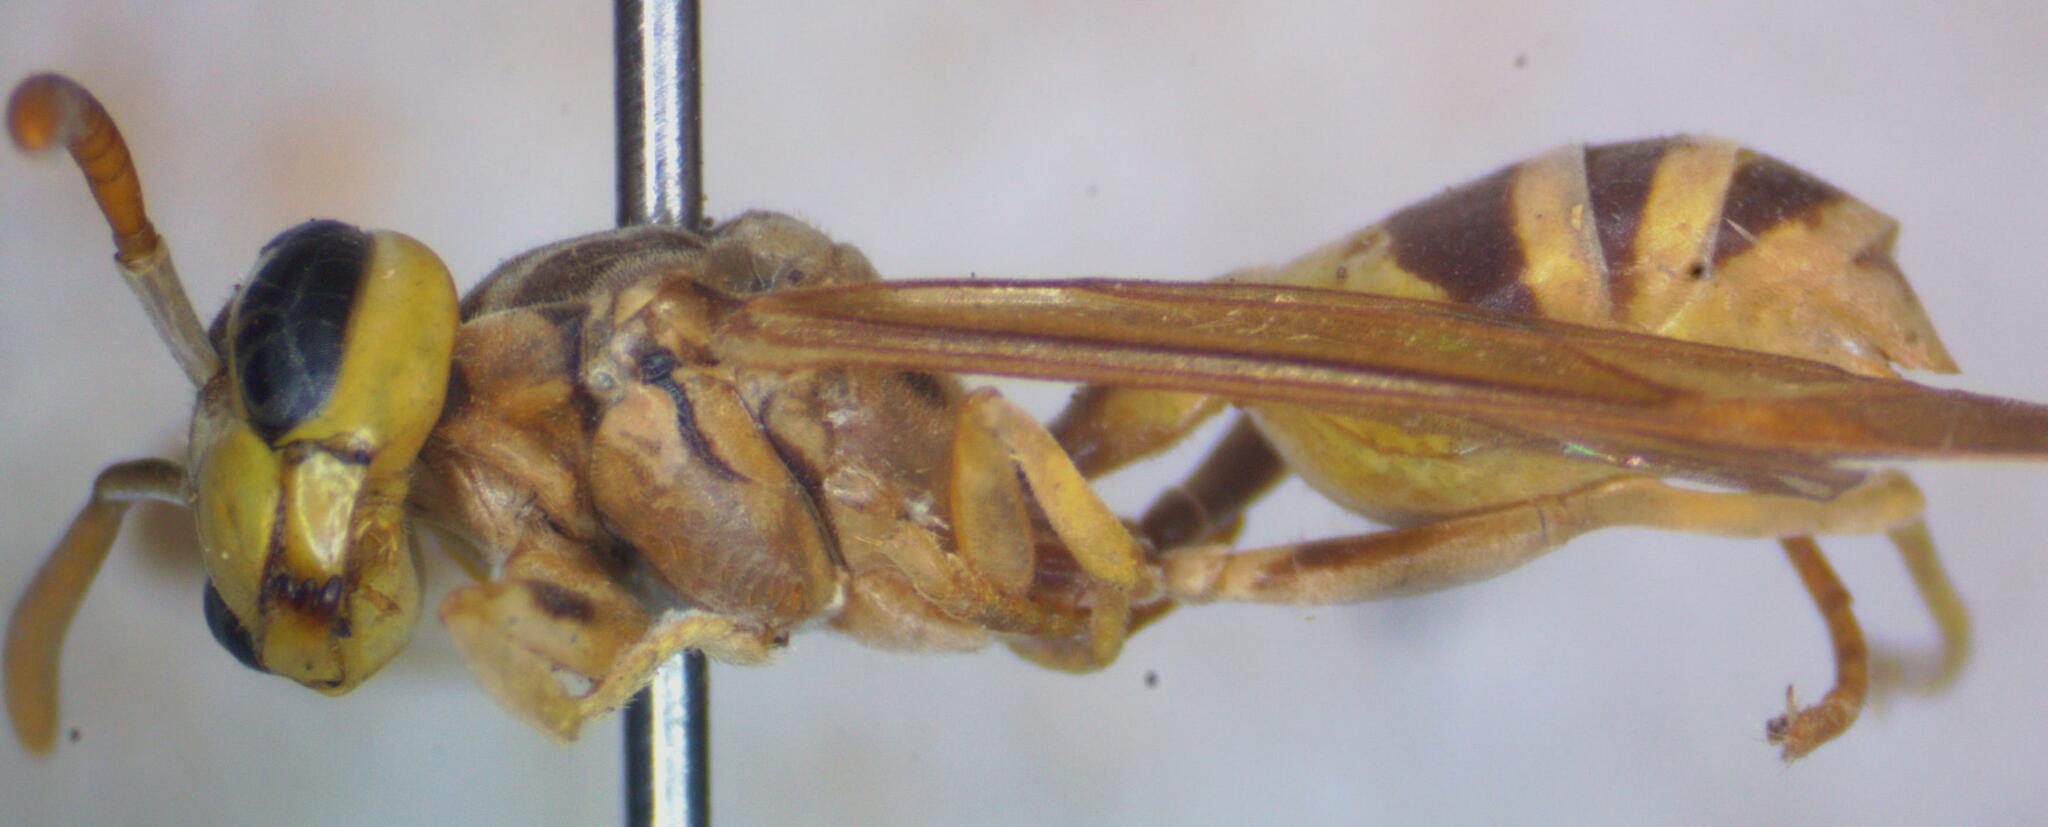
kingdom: Animalia
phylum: Arthropoda
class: Insecta
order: Hymenoptera
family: Eumenidae
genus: Polybia
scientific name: Polybia emaciata
